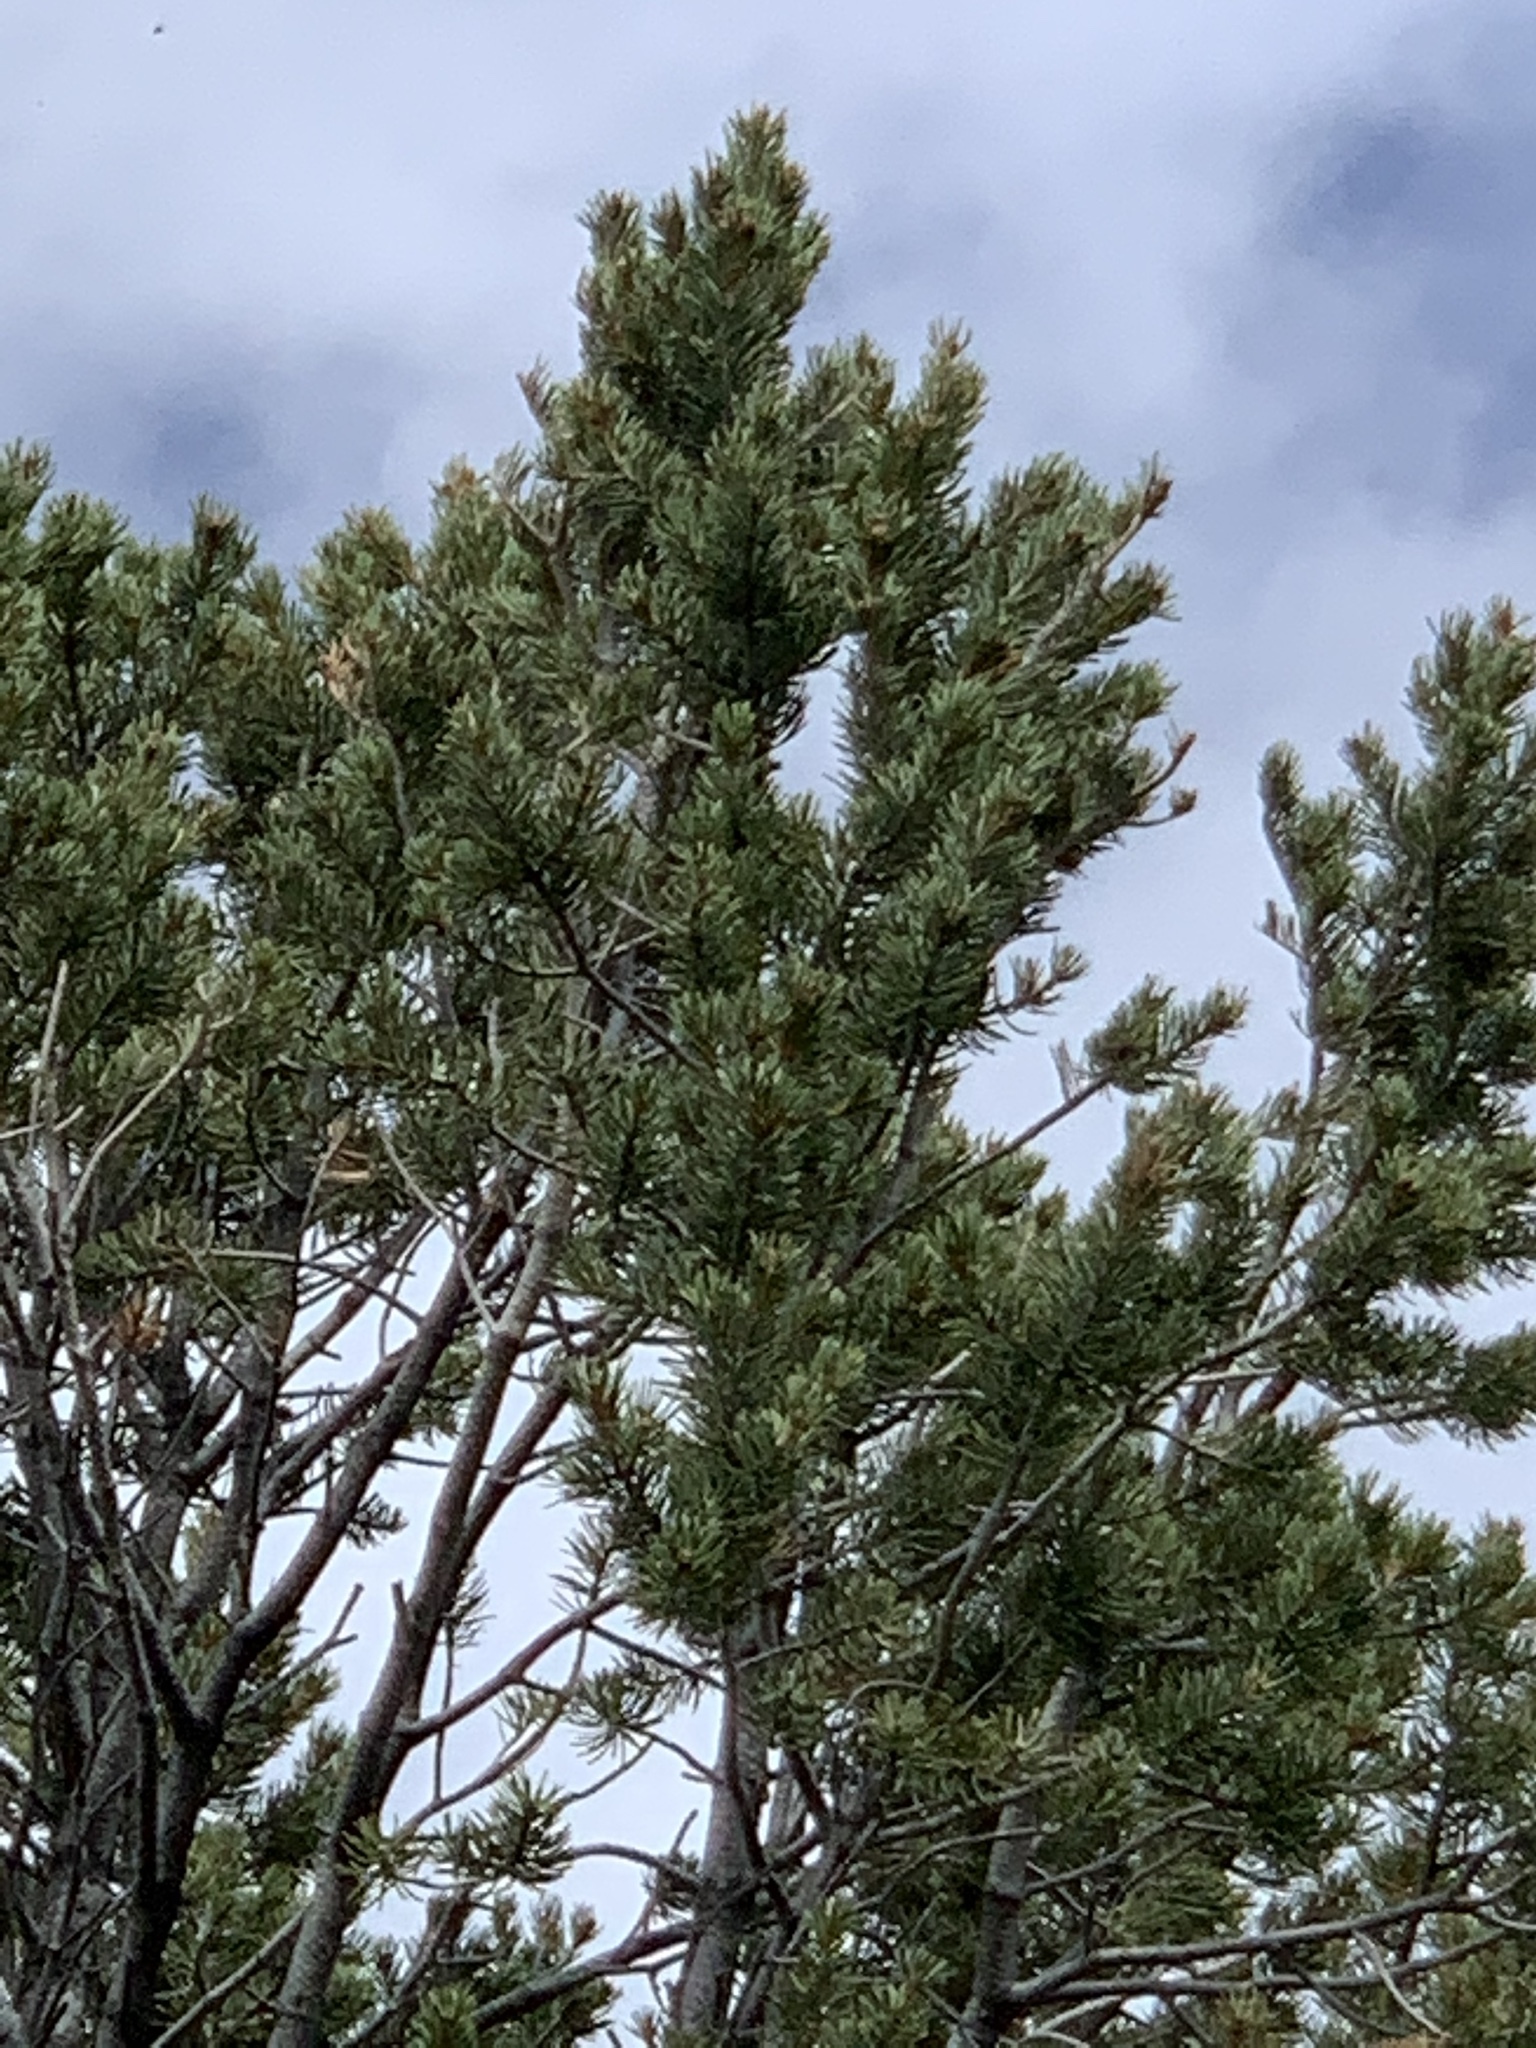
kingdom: Plantae
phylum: Tracheophyta
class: Pinopsida
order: Pinales
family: Pinaceae
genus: Pinus
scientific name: Pinus edulis
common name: Colorado pinyon
